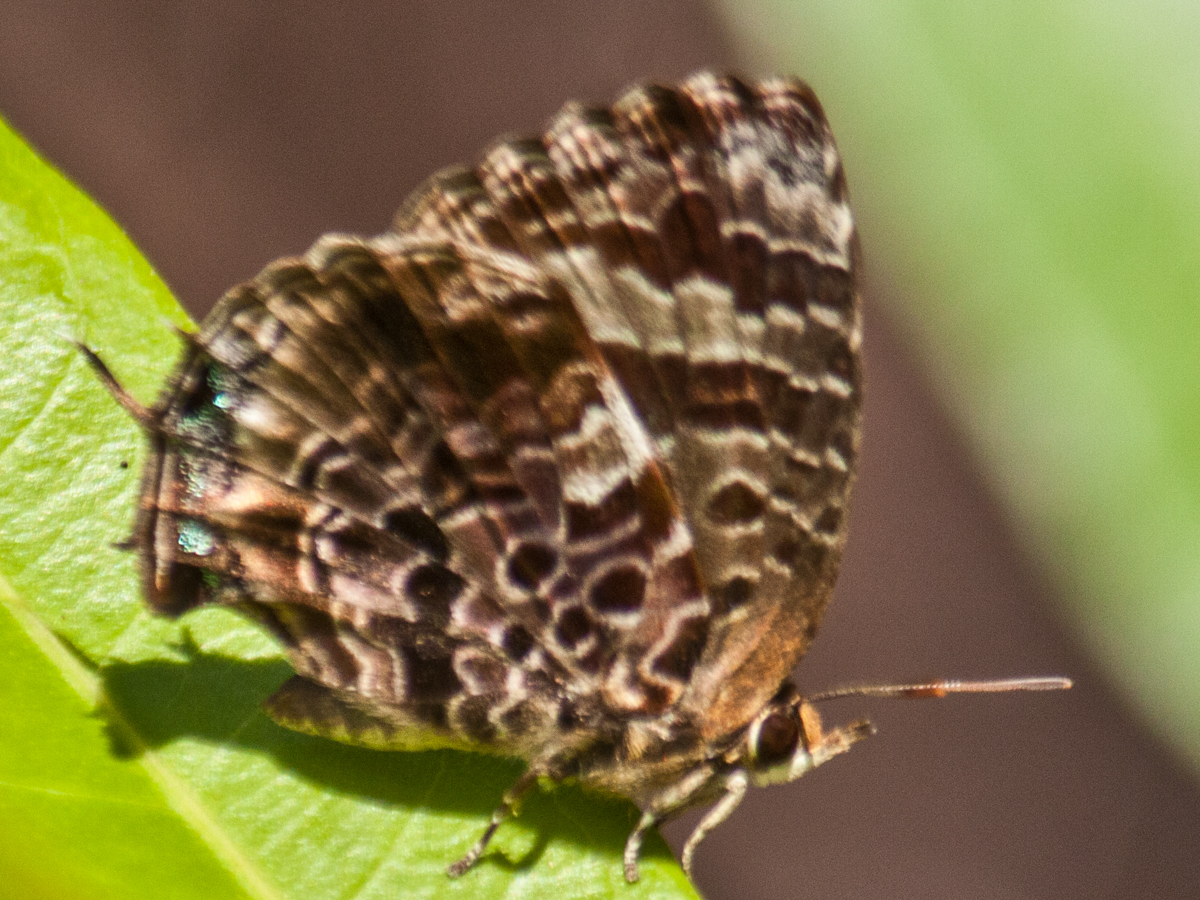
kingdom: Animalia
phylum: Arthropoda
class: Insecta
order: Lepidoptera
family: Lycaenidae
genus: Arhopala
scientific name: Arhopala abseus
